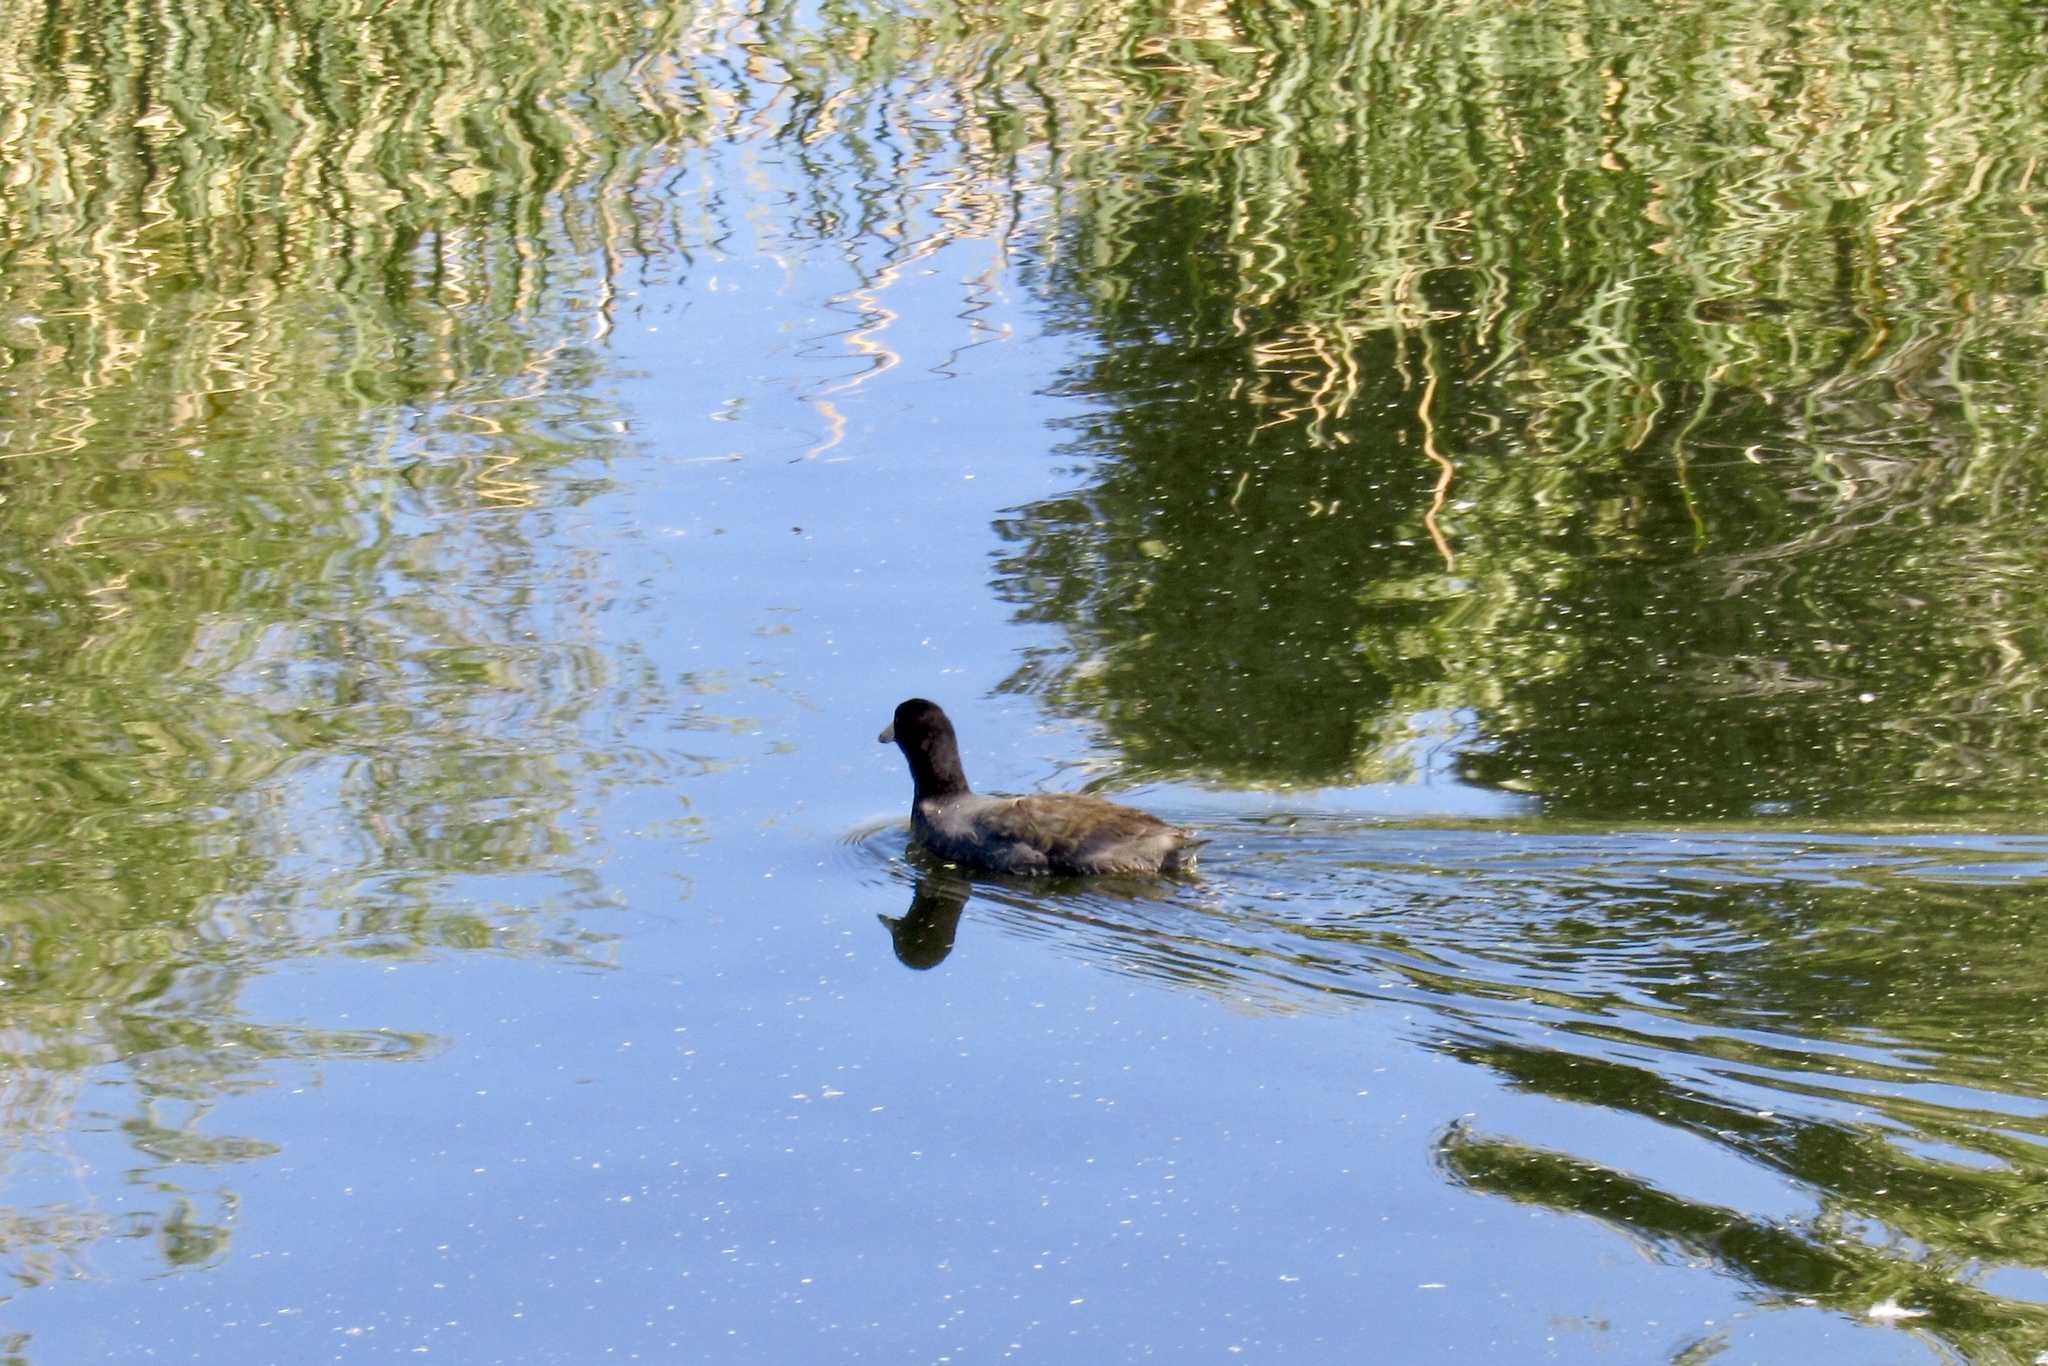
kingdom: Animalia
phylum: Chordata
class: Aves
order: Gruiformes
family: Rallidae
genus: Fulica
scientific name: Fulica americana
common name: American coot
